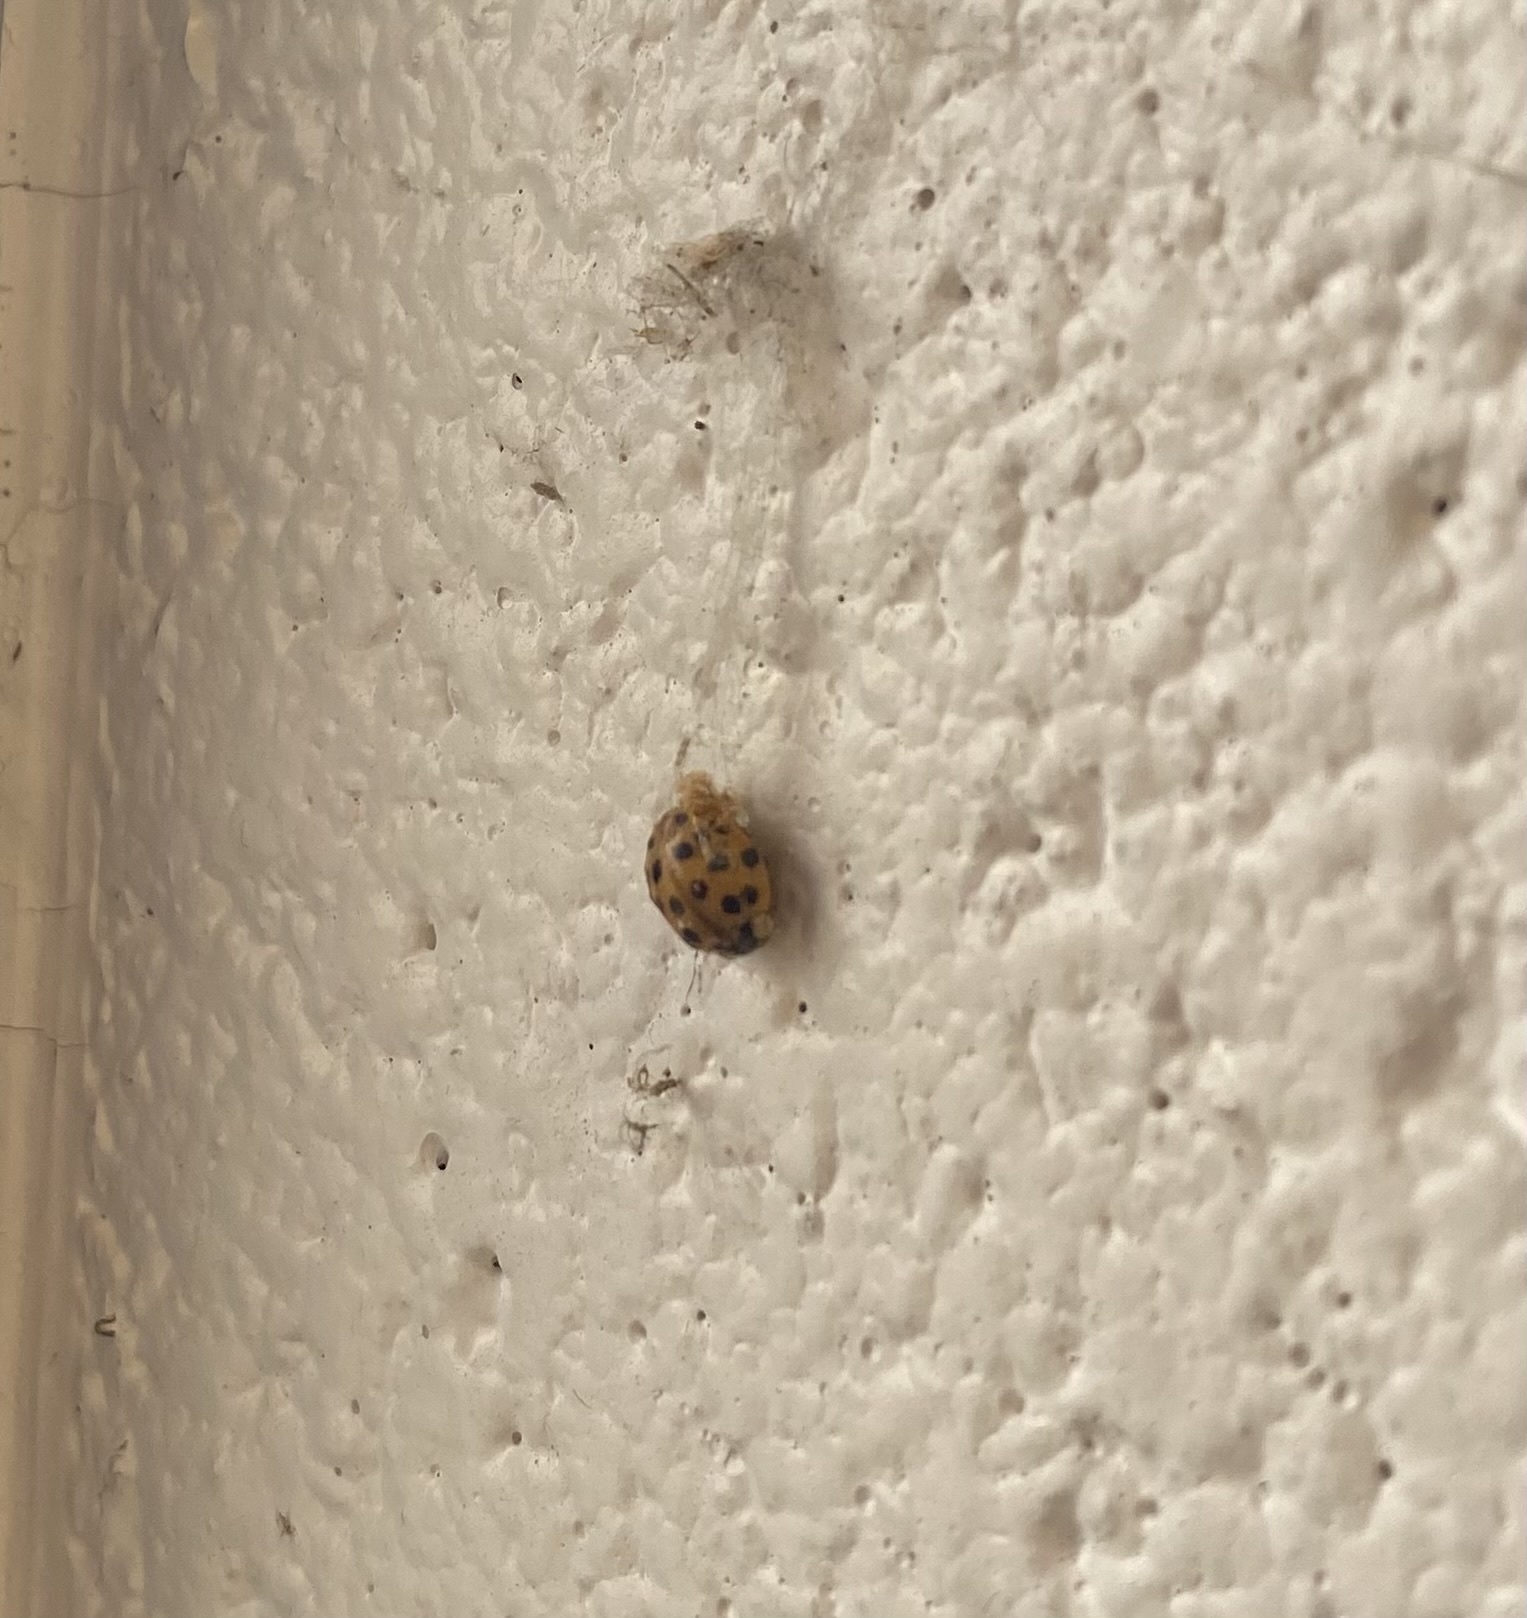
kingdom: Animalia
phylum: Arthropoda
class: Insecta
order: Coleoptera
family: Coccinellidae
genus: Harmonia
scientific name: Harmonia axyridis
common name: Harlequin ladybird
